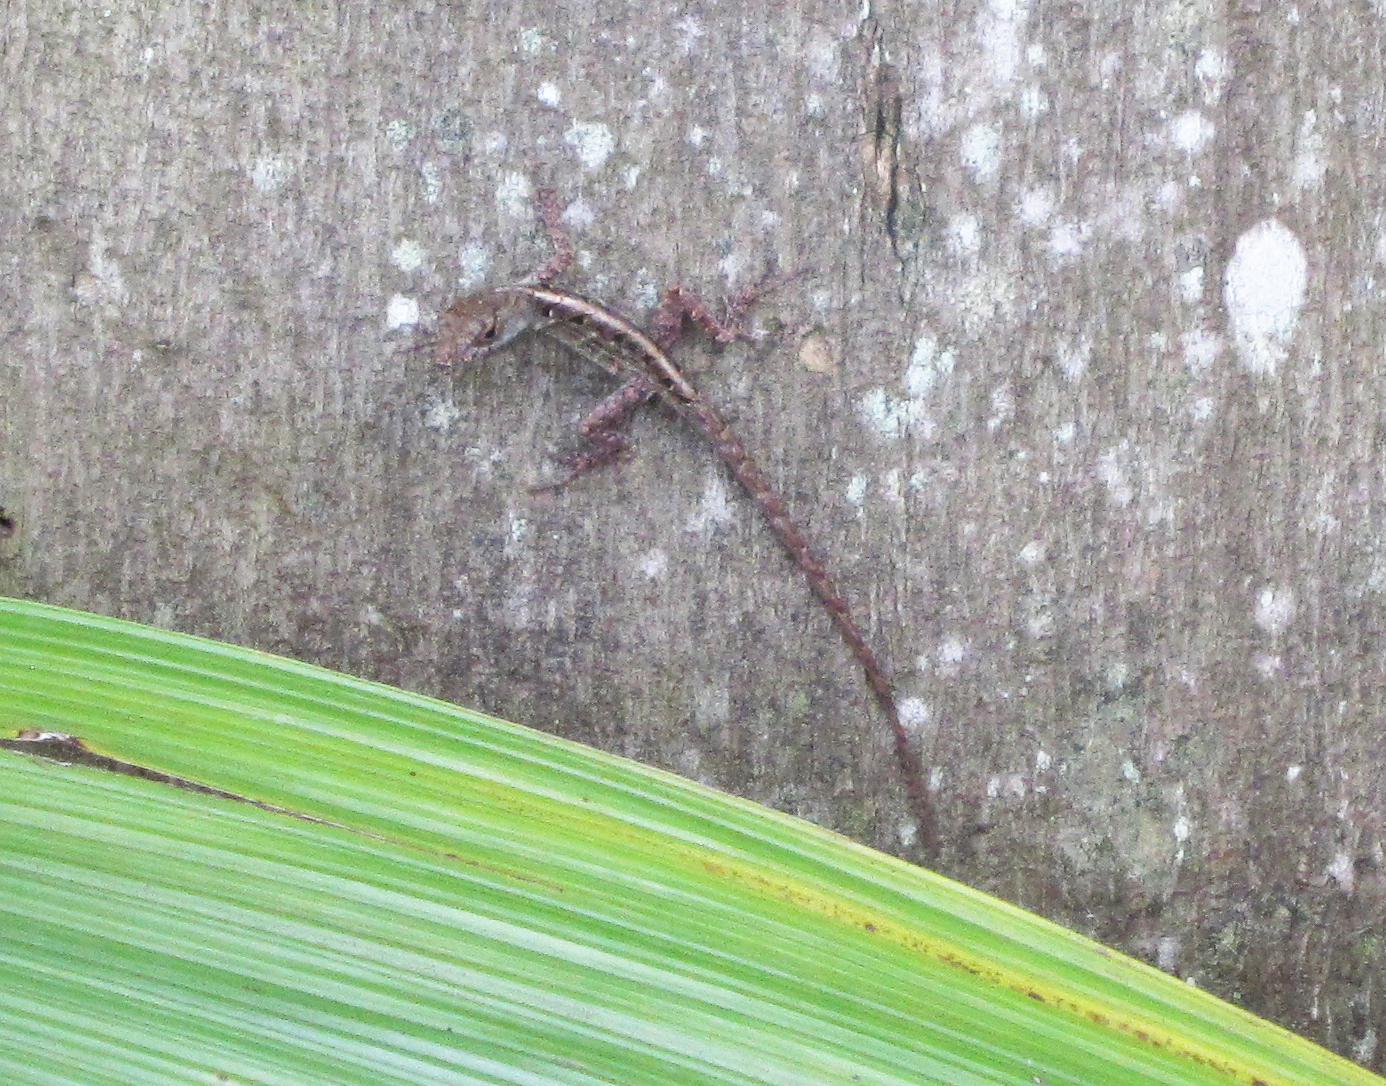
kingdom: Animalia
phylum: Chordata
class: Squamata
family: Dactyloidae
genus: Anolis
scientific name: Anolis sagrei
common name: Brown anole
